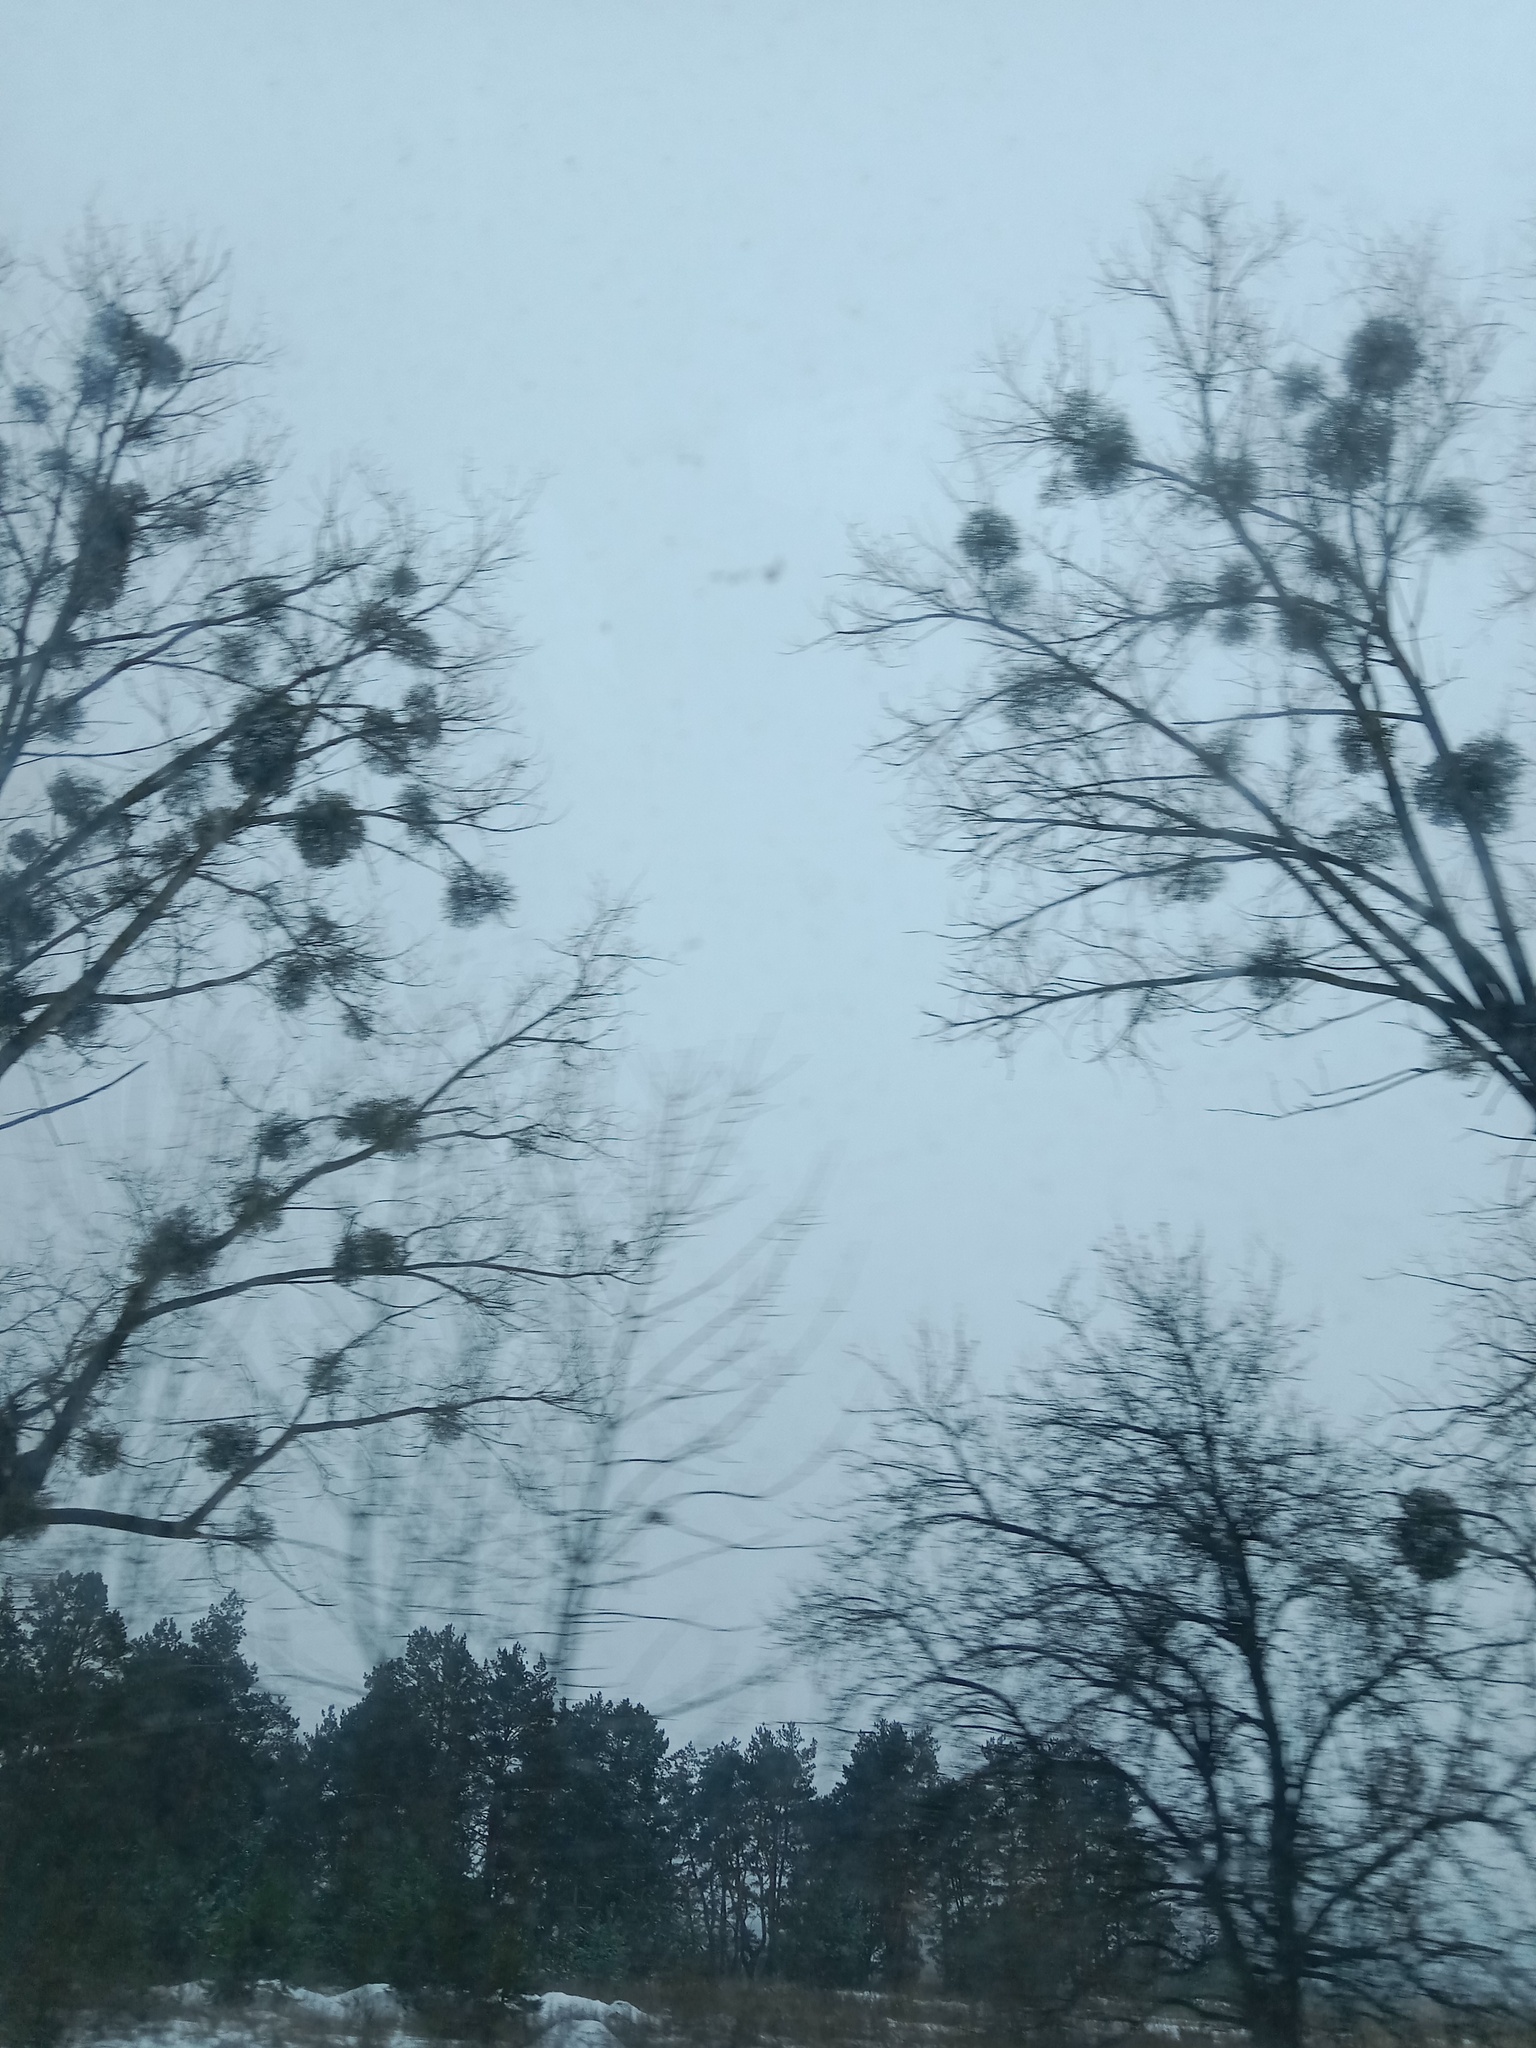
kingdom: Plantae
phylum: Tracheophyta
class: Magnoliopsida
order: Santalales
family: Viscaceae
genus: Viscum
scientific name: Viscum album
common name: Mistletoe
